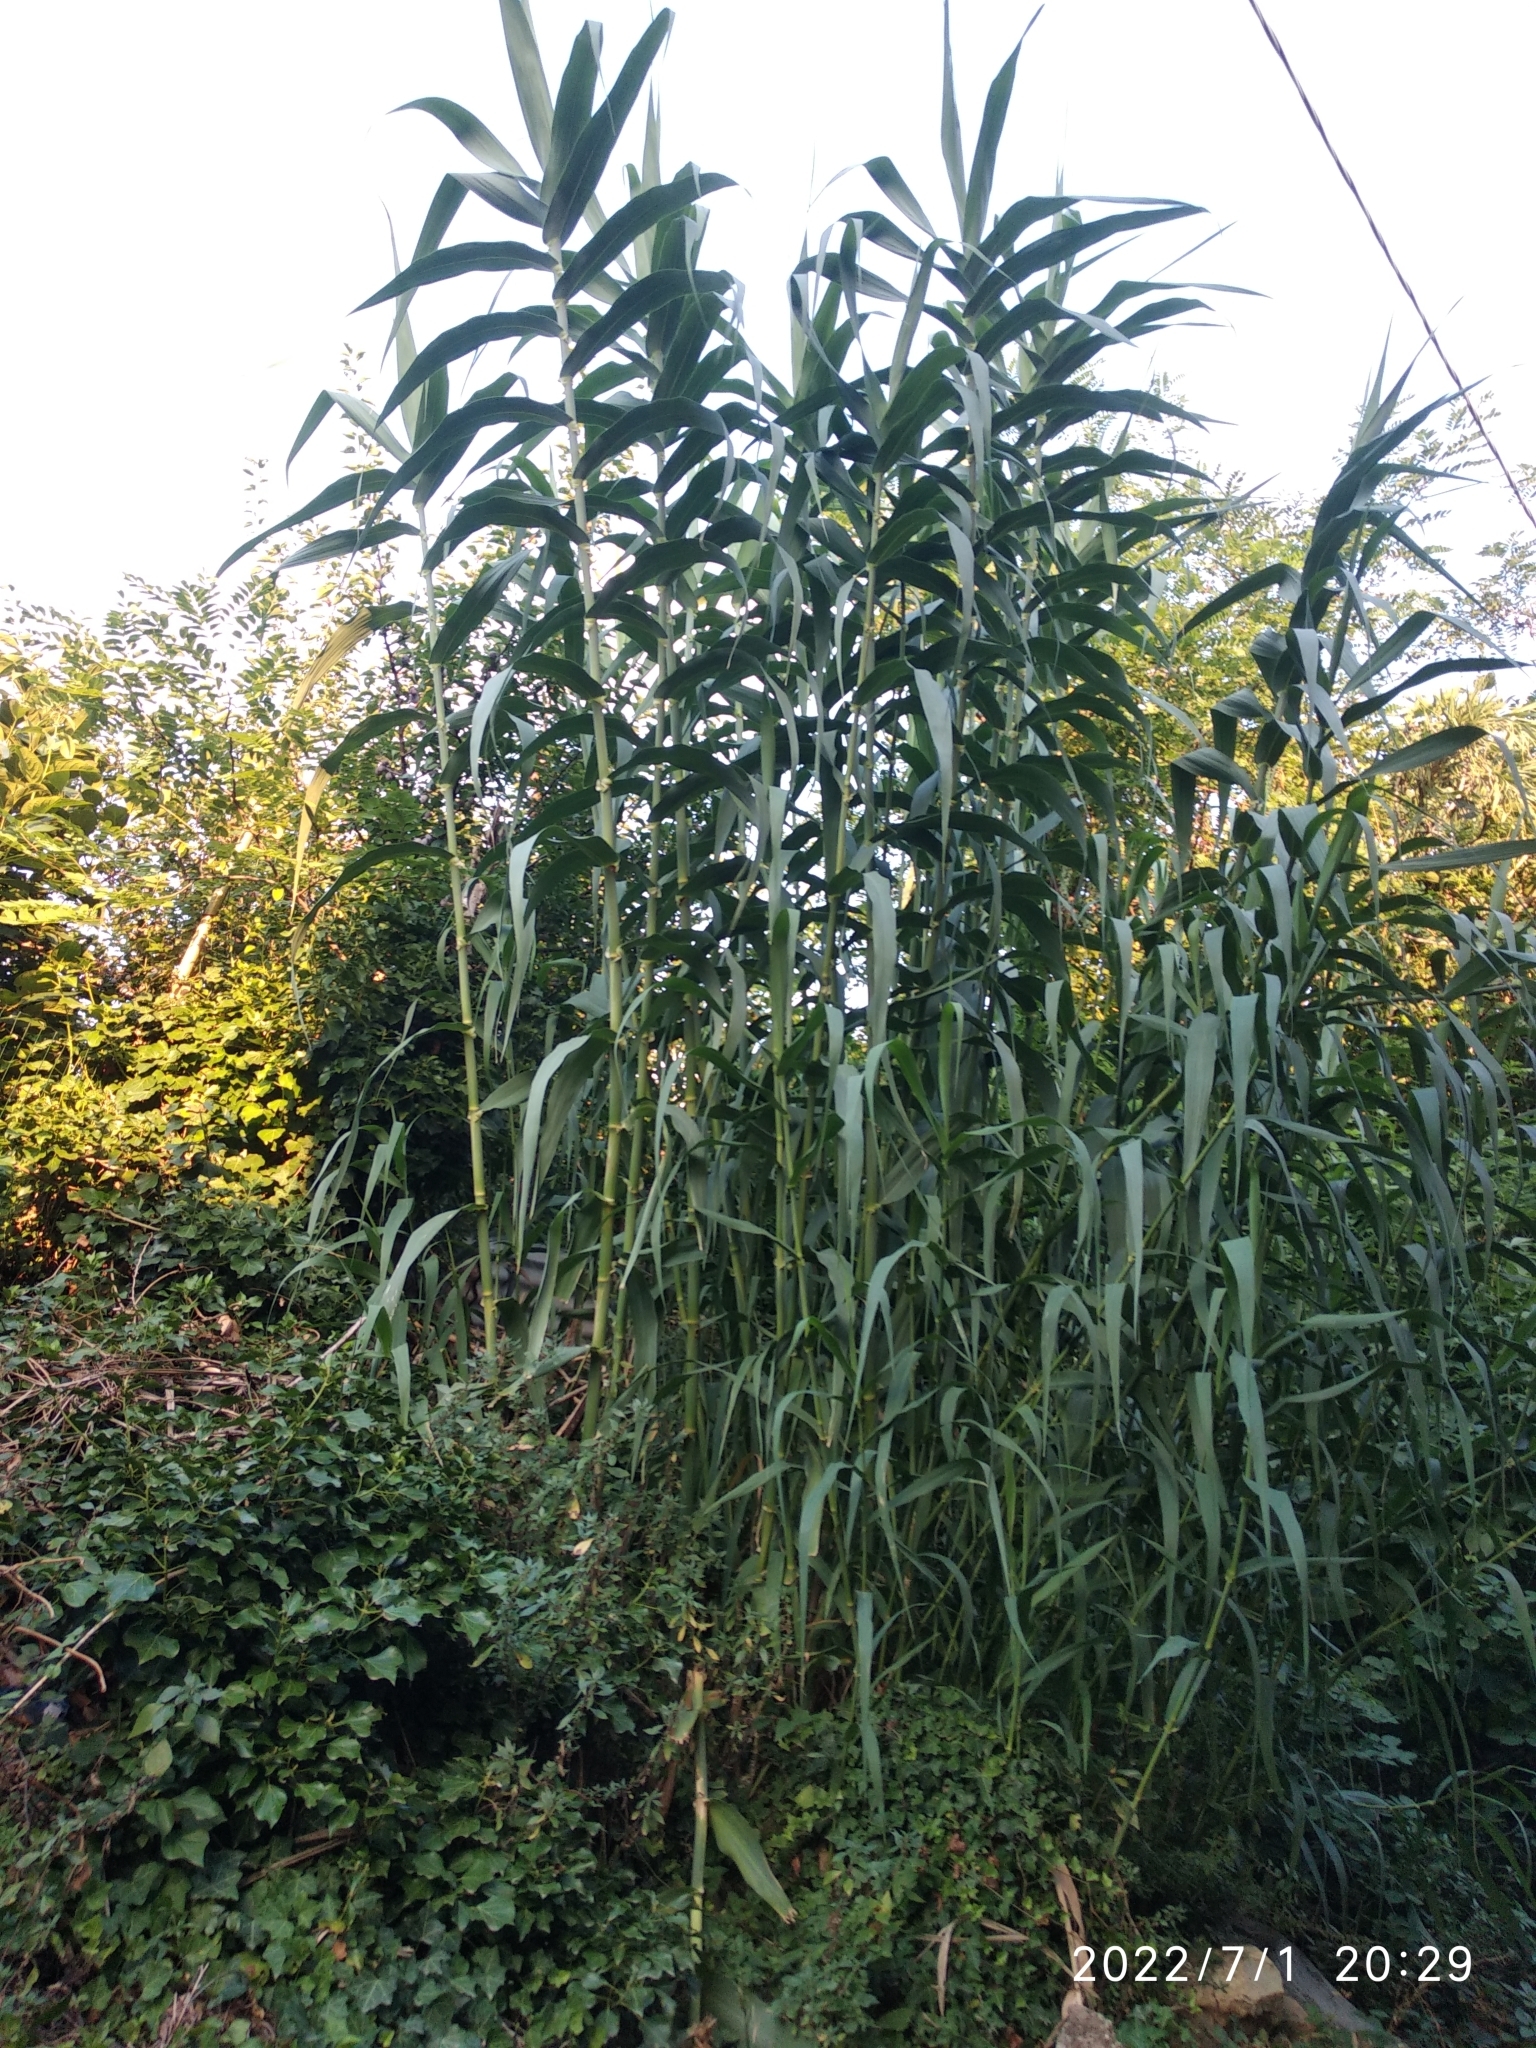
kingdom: Plantae
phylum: Tracheophyta
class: Liliopsida
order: Poales
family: Poaceae
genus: Arundo
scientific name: Arundo donax
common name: Giant reed
